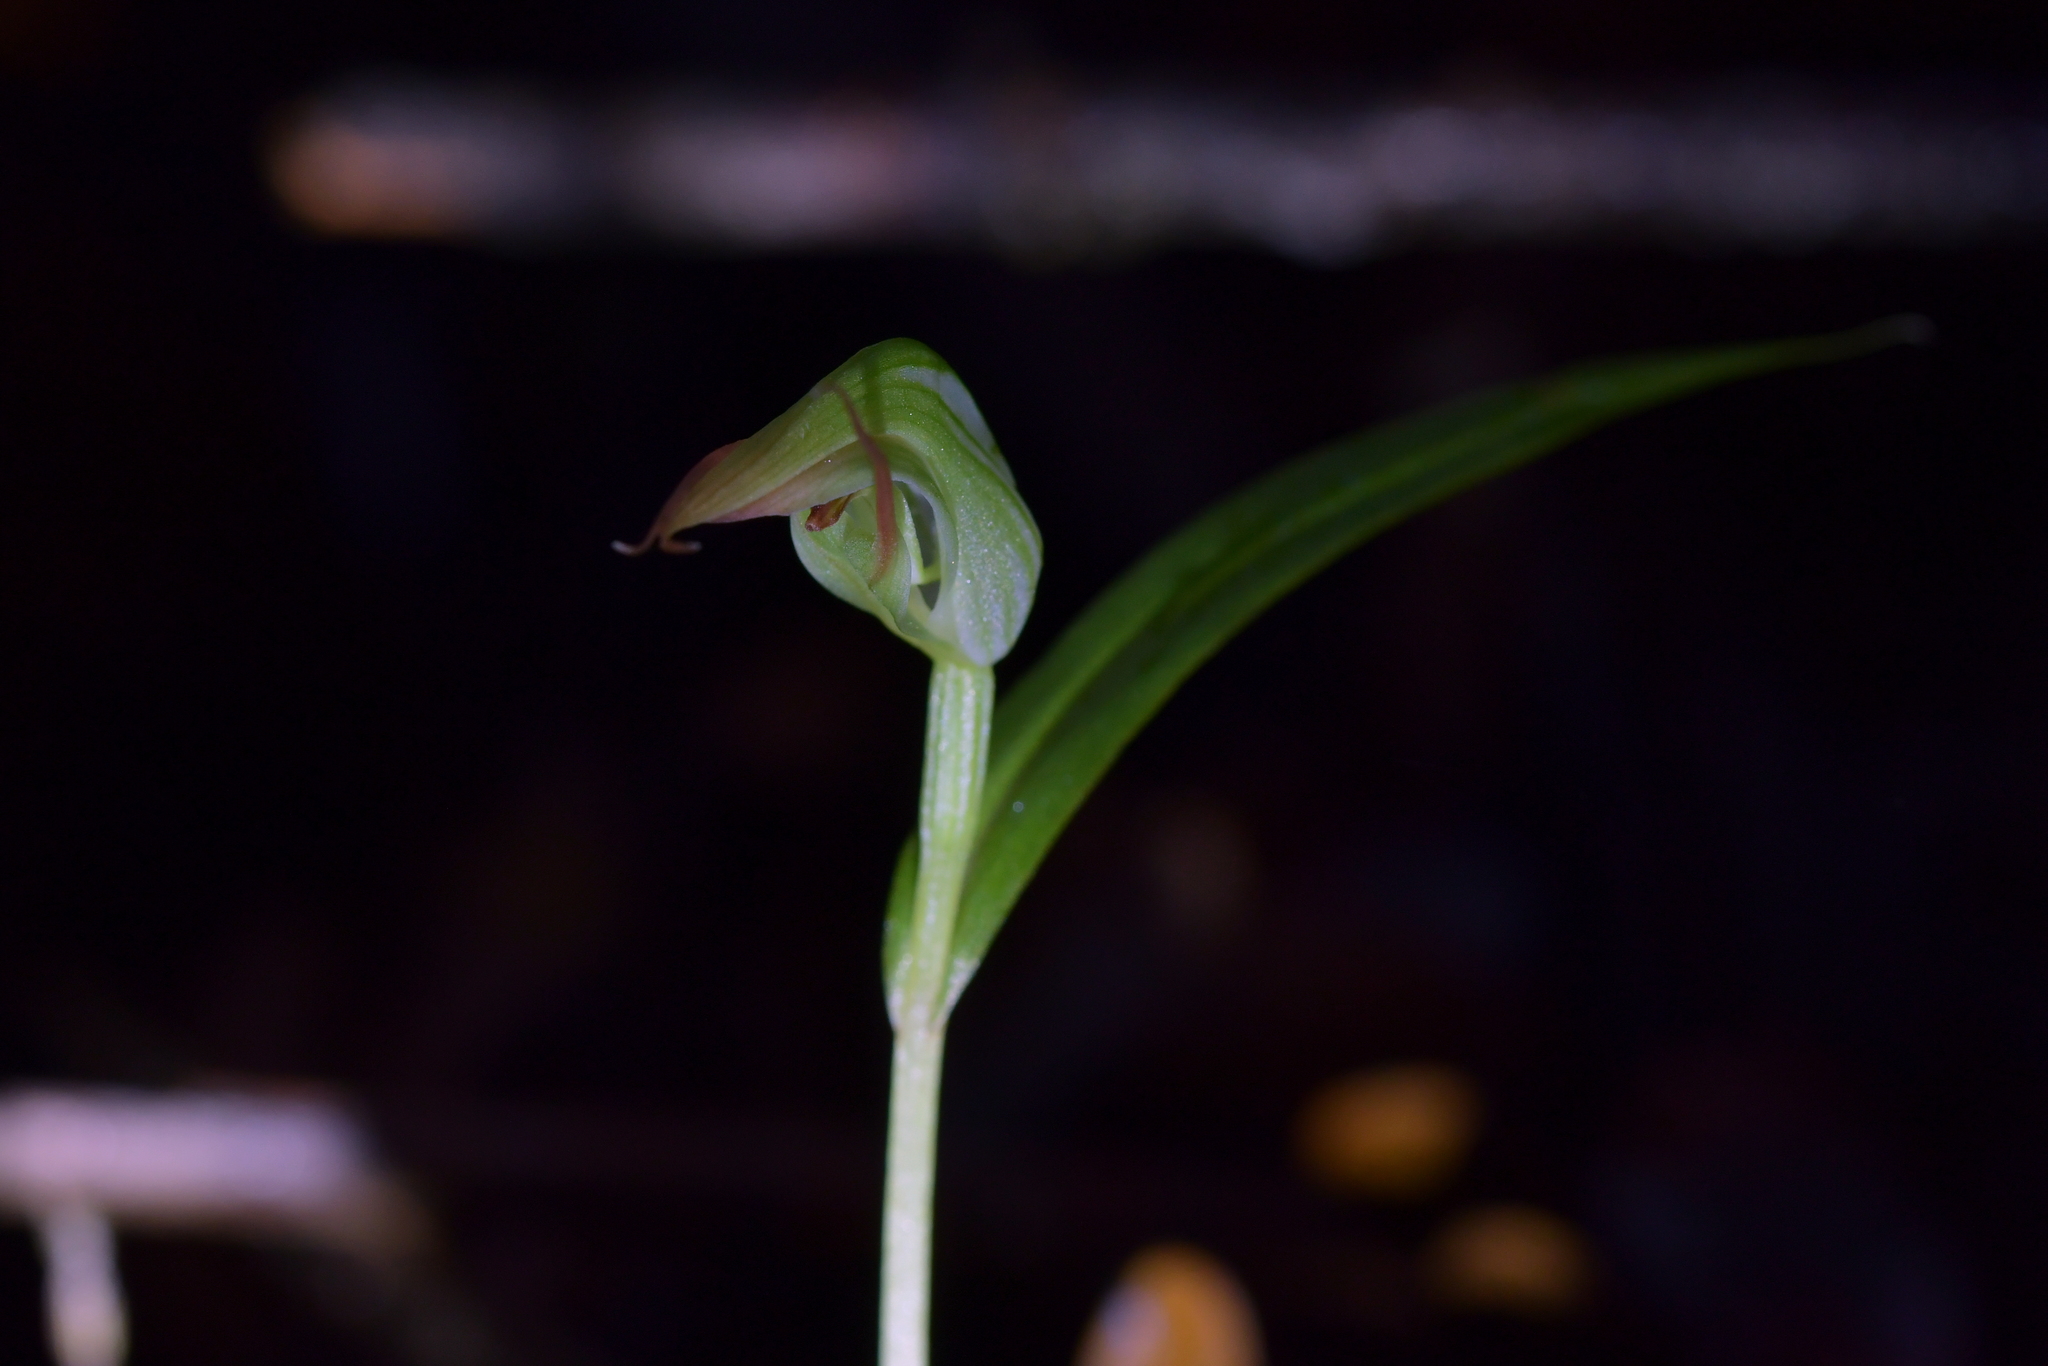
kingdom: Plantae
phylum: Tracheophyta
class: Liliopsida
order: Asparagales
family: Orchidaceae
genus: Pterostylis
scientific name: Pterostylis agathicola
